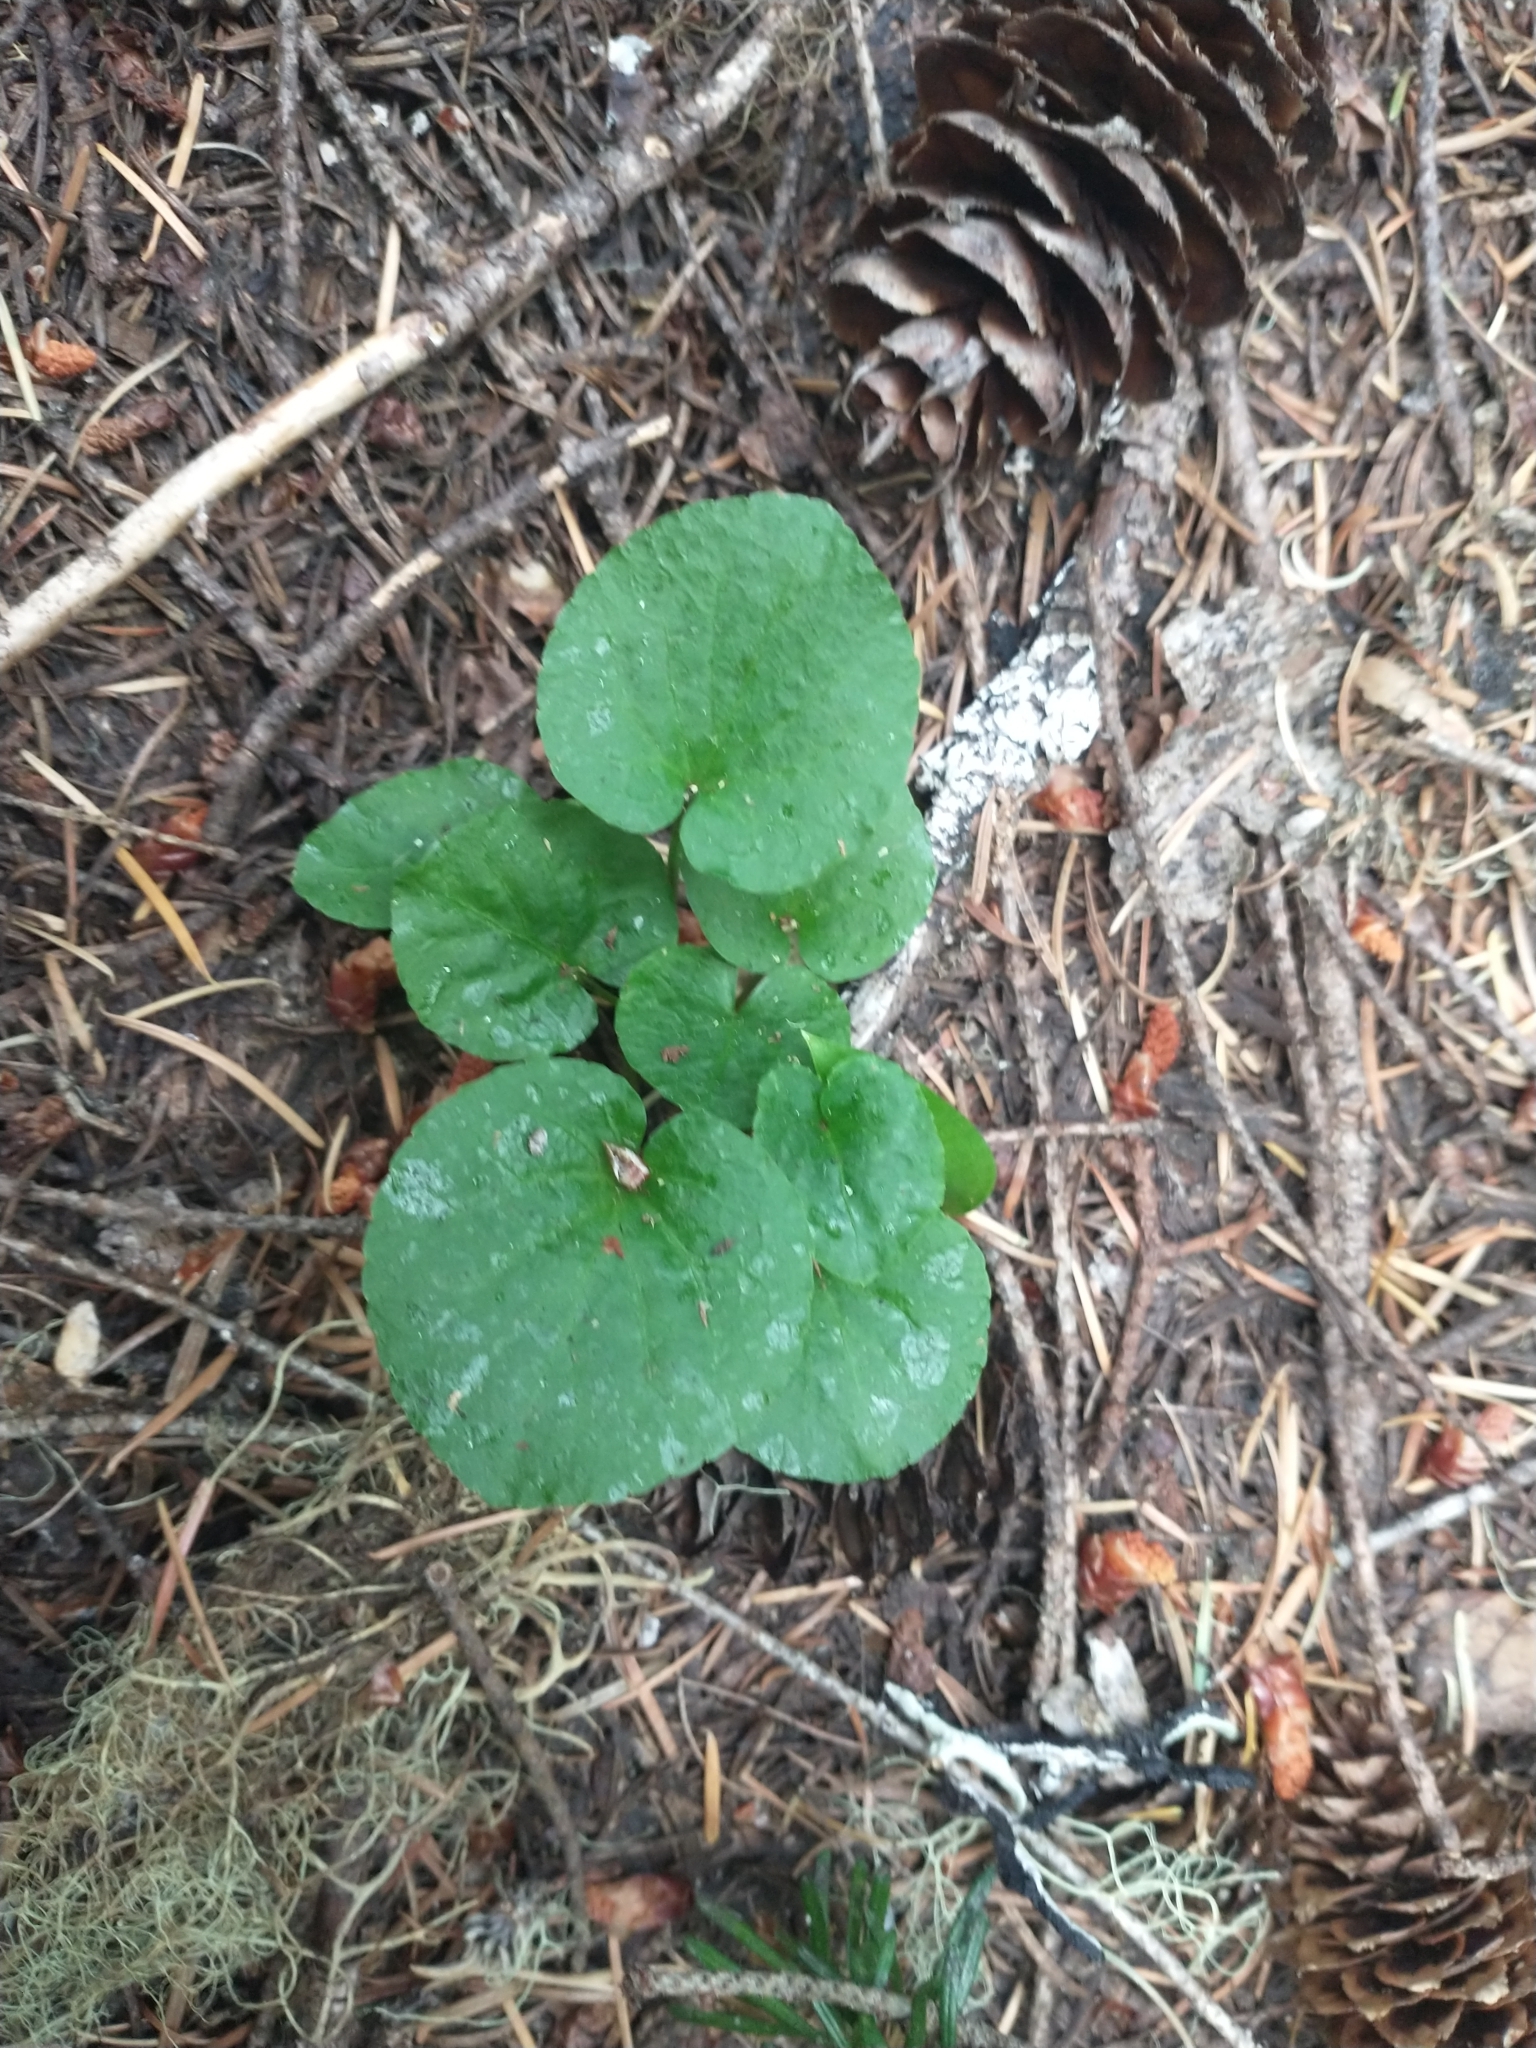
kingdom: Plantae
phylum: Tracheophyta
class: Magnoliopsida
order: Malpighiales
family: Violaceae
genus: Viola
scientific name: Viola orbiculata
